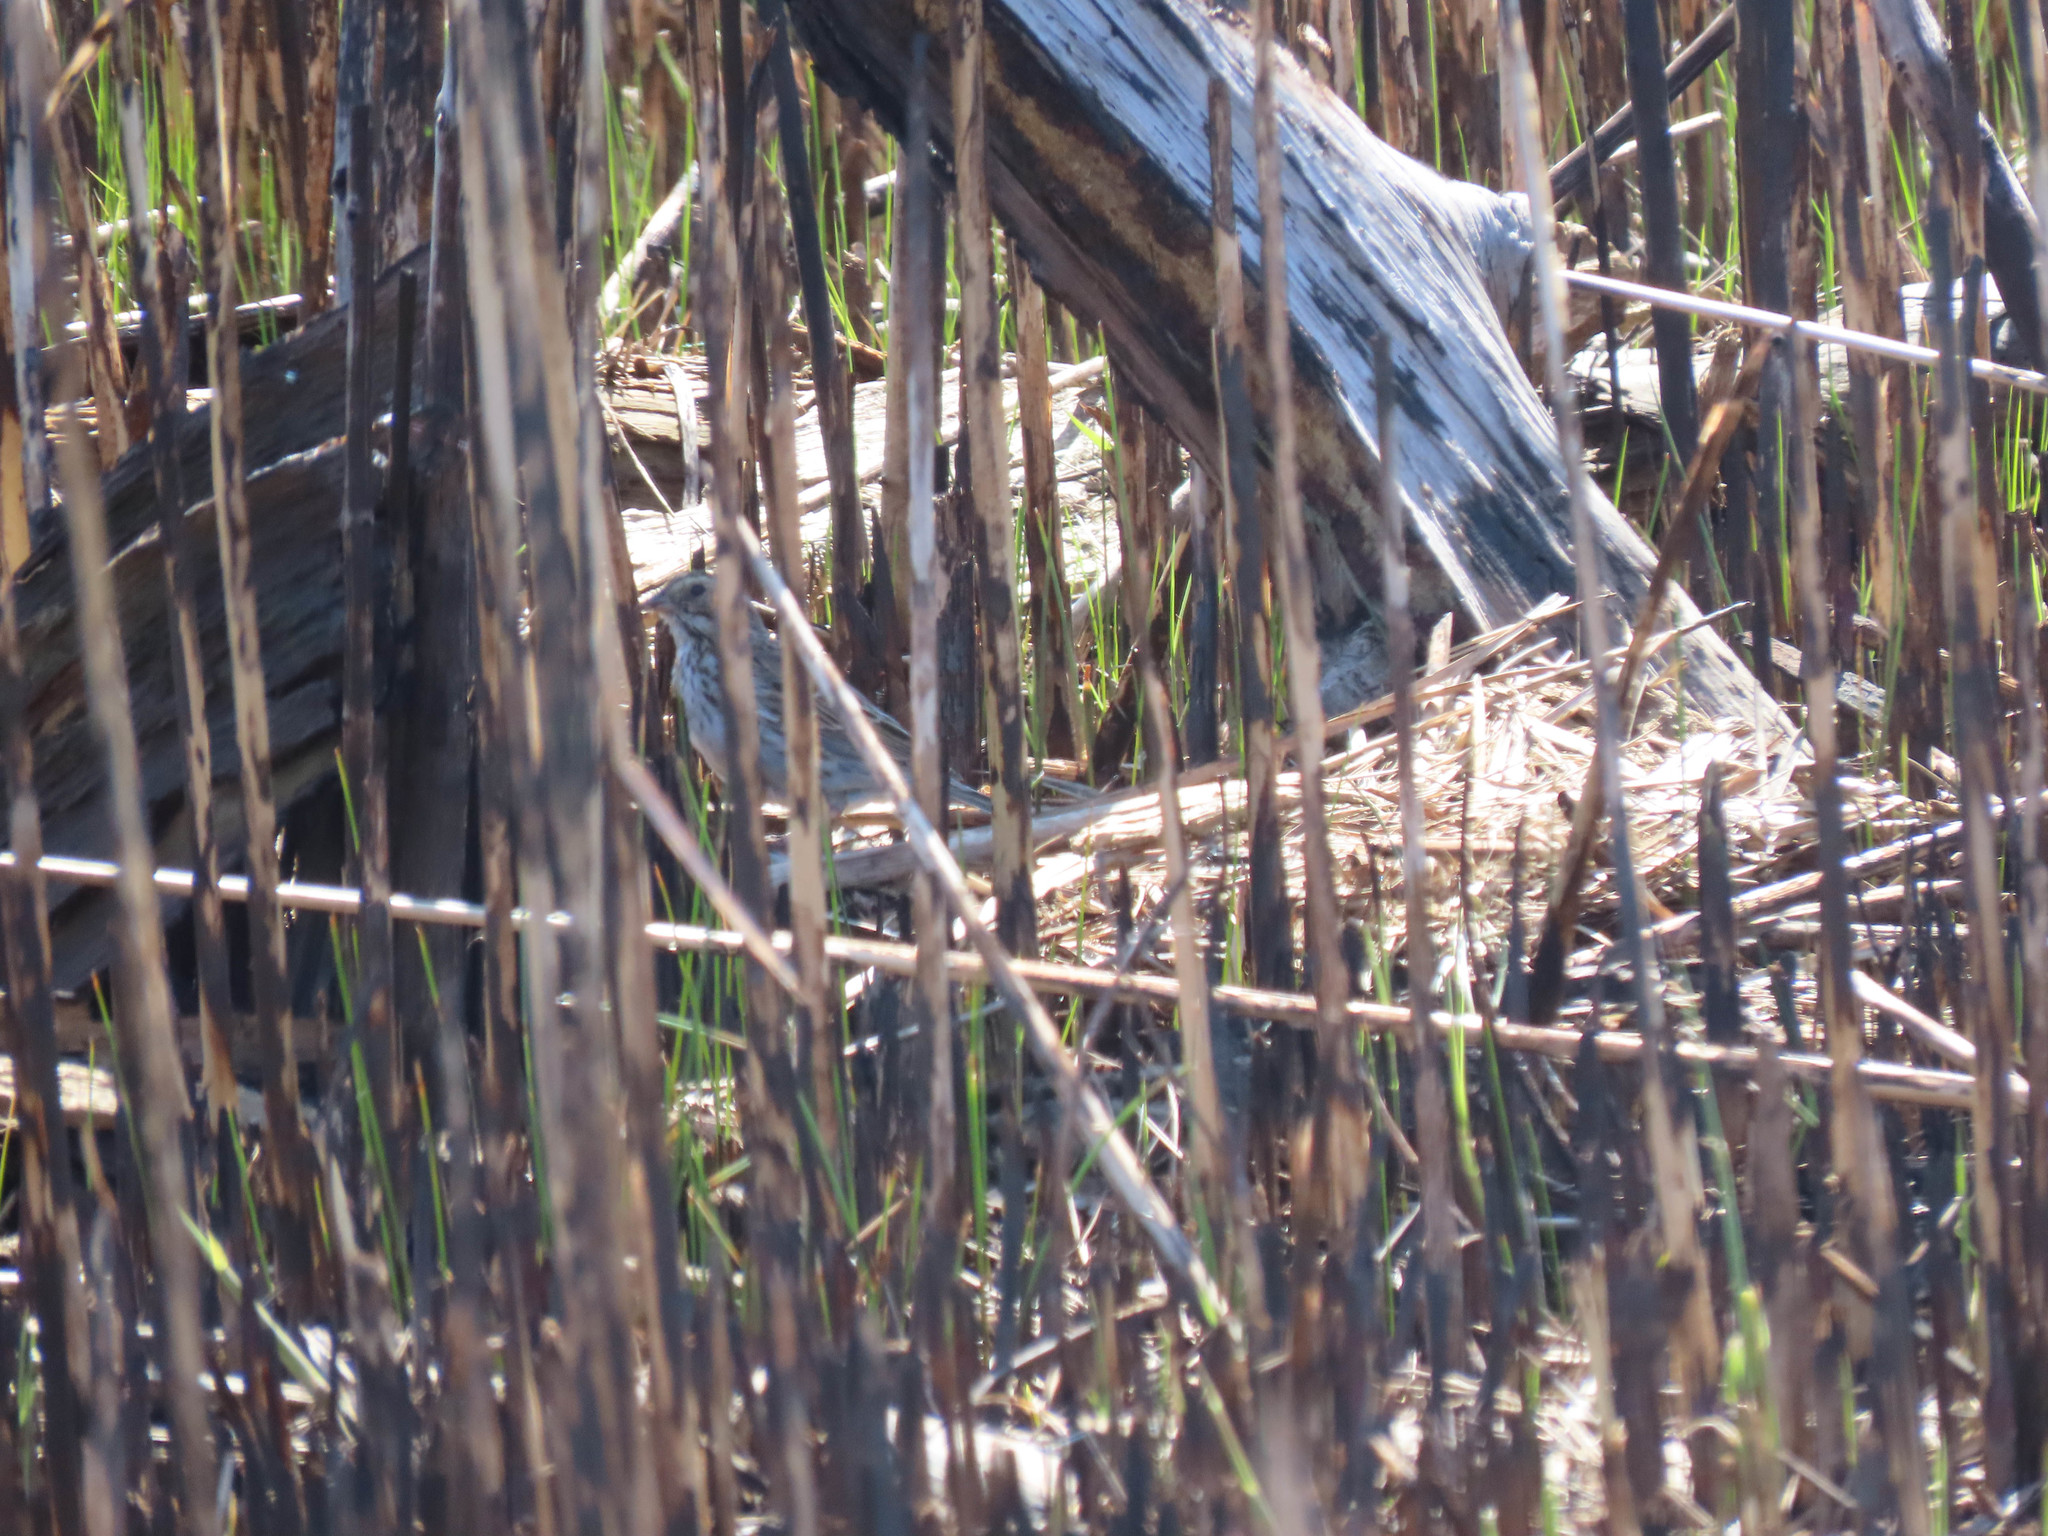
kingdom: Animalia
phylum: Chordata
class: Aves
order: Passeriformes
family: Passerellidae
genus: Passerculus
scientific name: Passerculus sandwichensis
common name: Savannah sparrow
